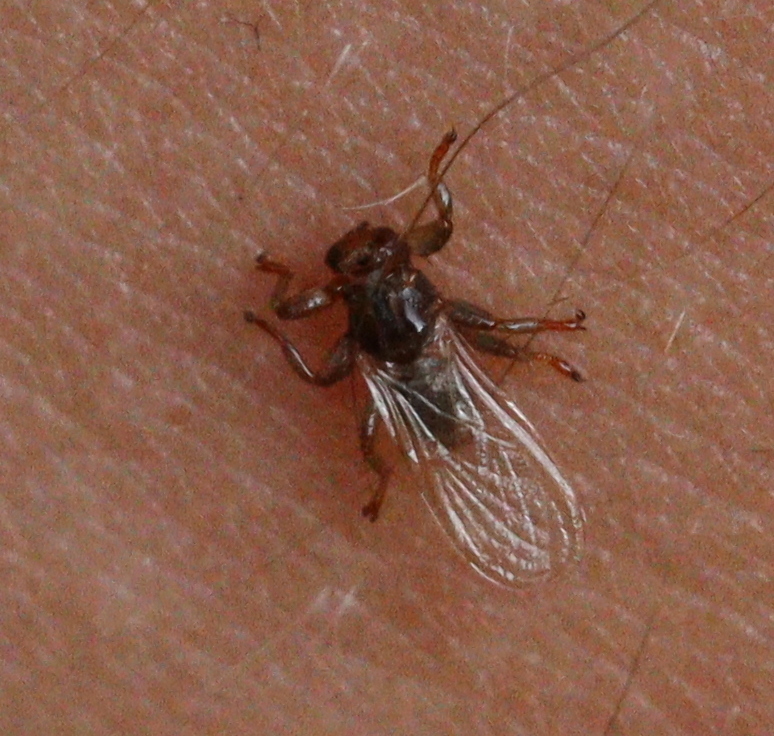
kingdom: Animalia
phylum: Arthropoda
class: Insecta
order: Diptera
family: Hippoboscidae
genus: Lipoptena
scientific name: Lipoptena cervi
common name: Deer ked
